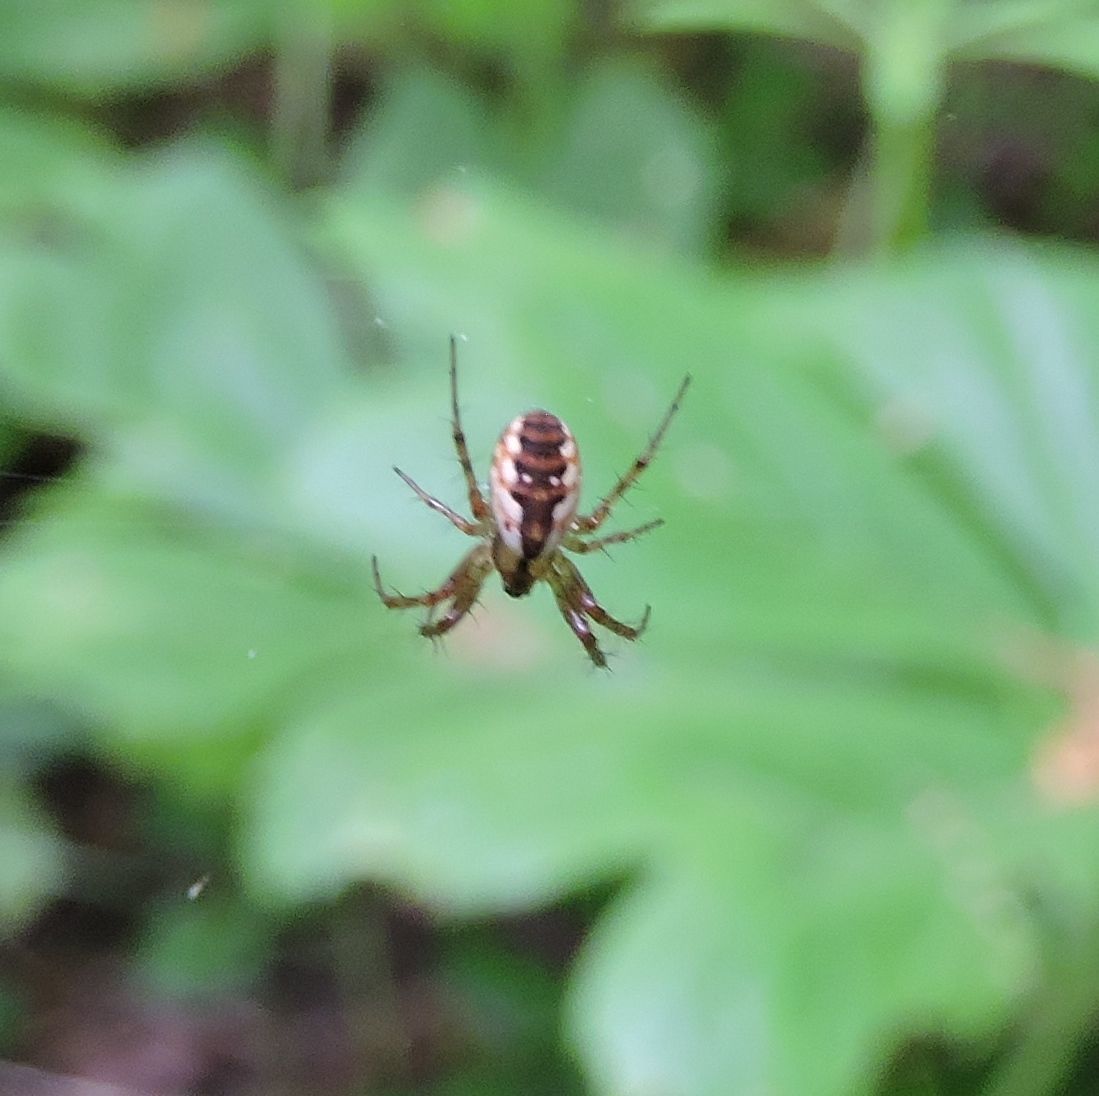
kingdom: Animalia
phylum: Arthropoda
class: Arachnida
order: Araneae
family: Tetragnathidae
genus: Leucauge
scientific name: Leucauge venusta
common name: Longjawed orb weavers
